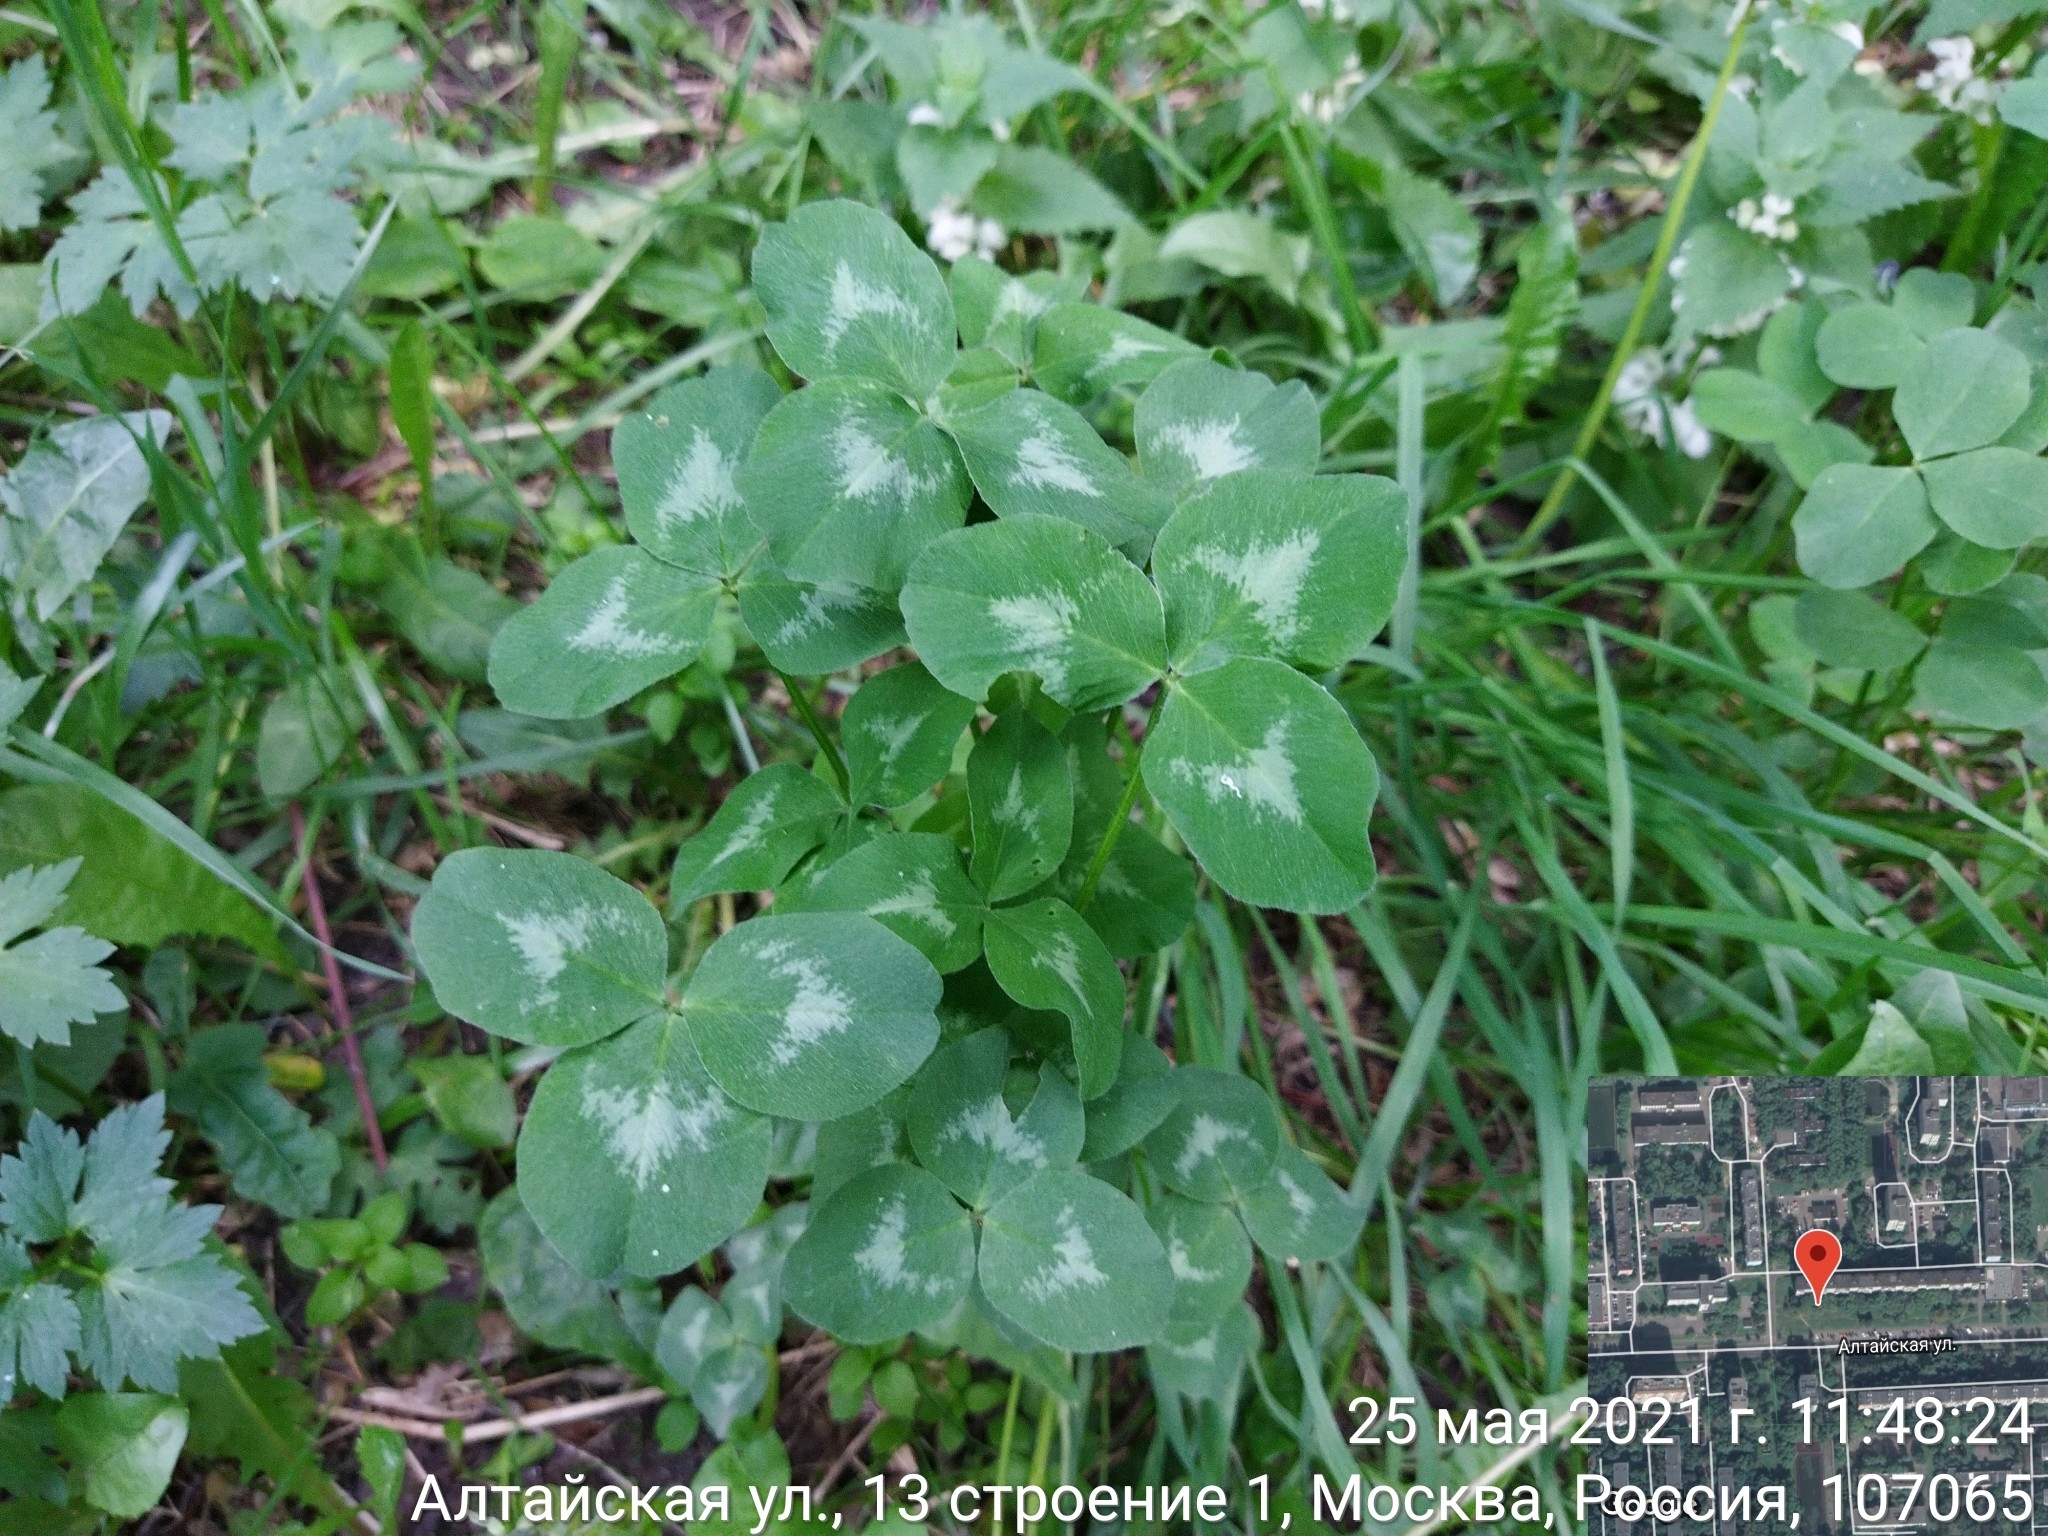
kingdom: Plantae
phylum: Tracheophyta
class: Magnoliopsida
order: Fabales
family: Fabaceae
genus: Trifolium
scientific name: Trifolium pratense
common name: Red clover
